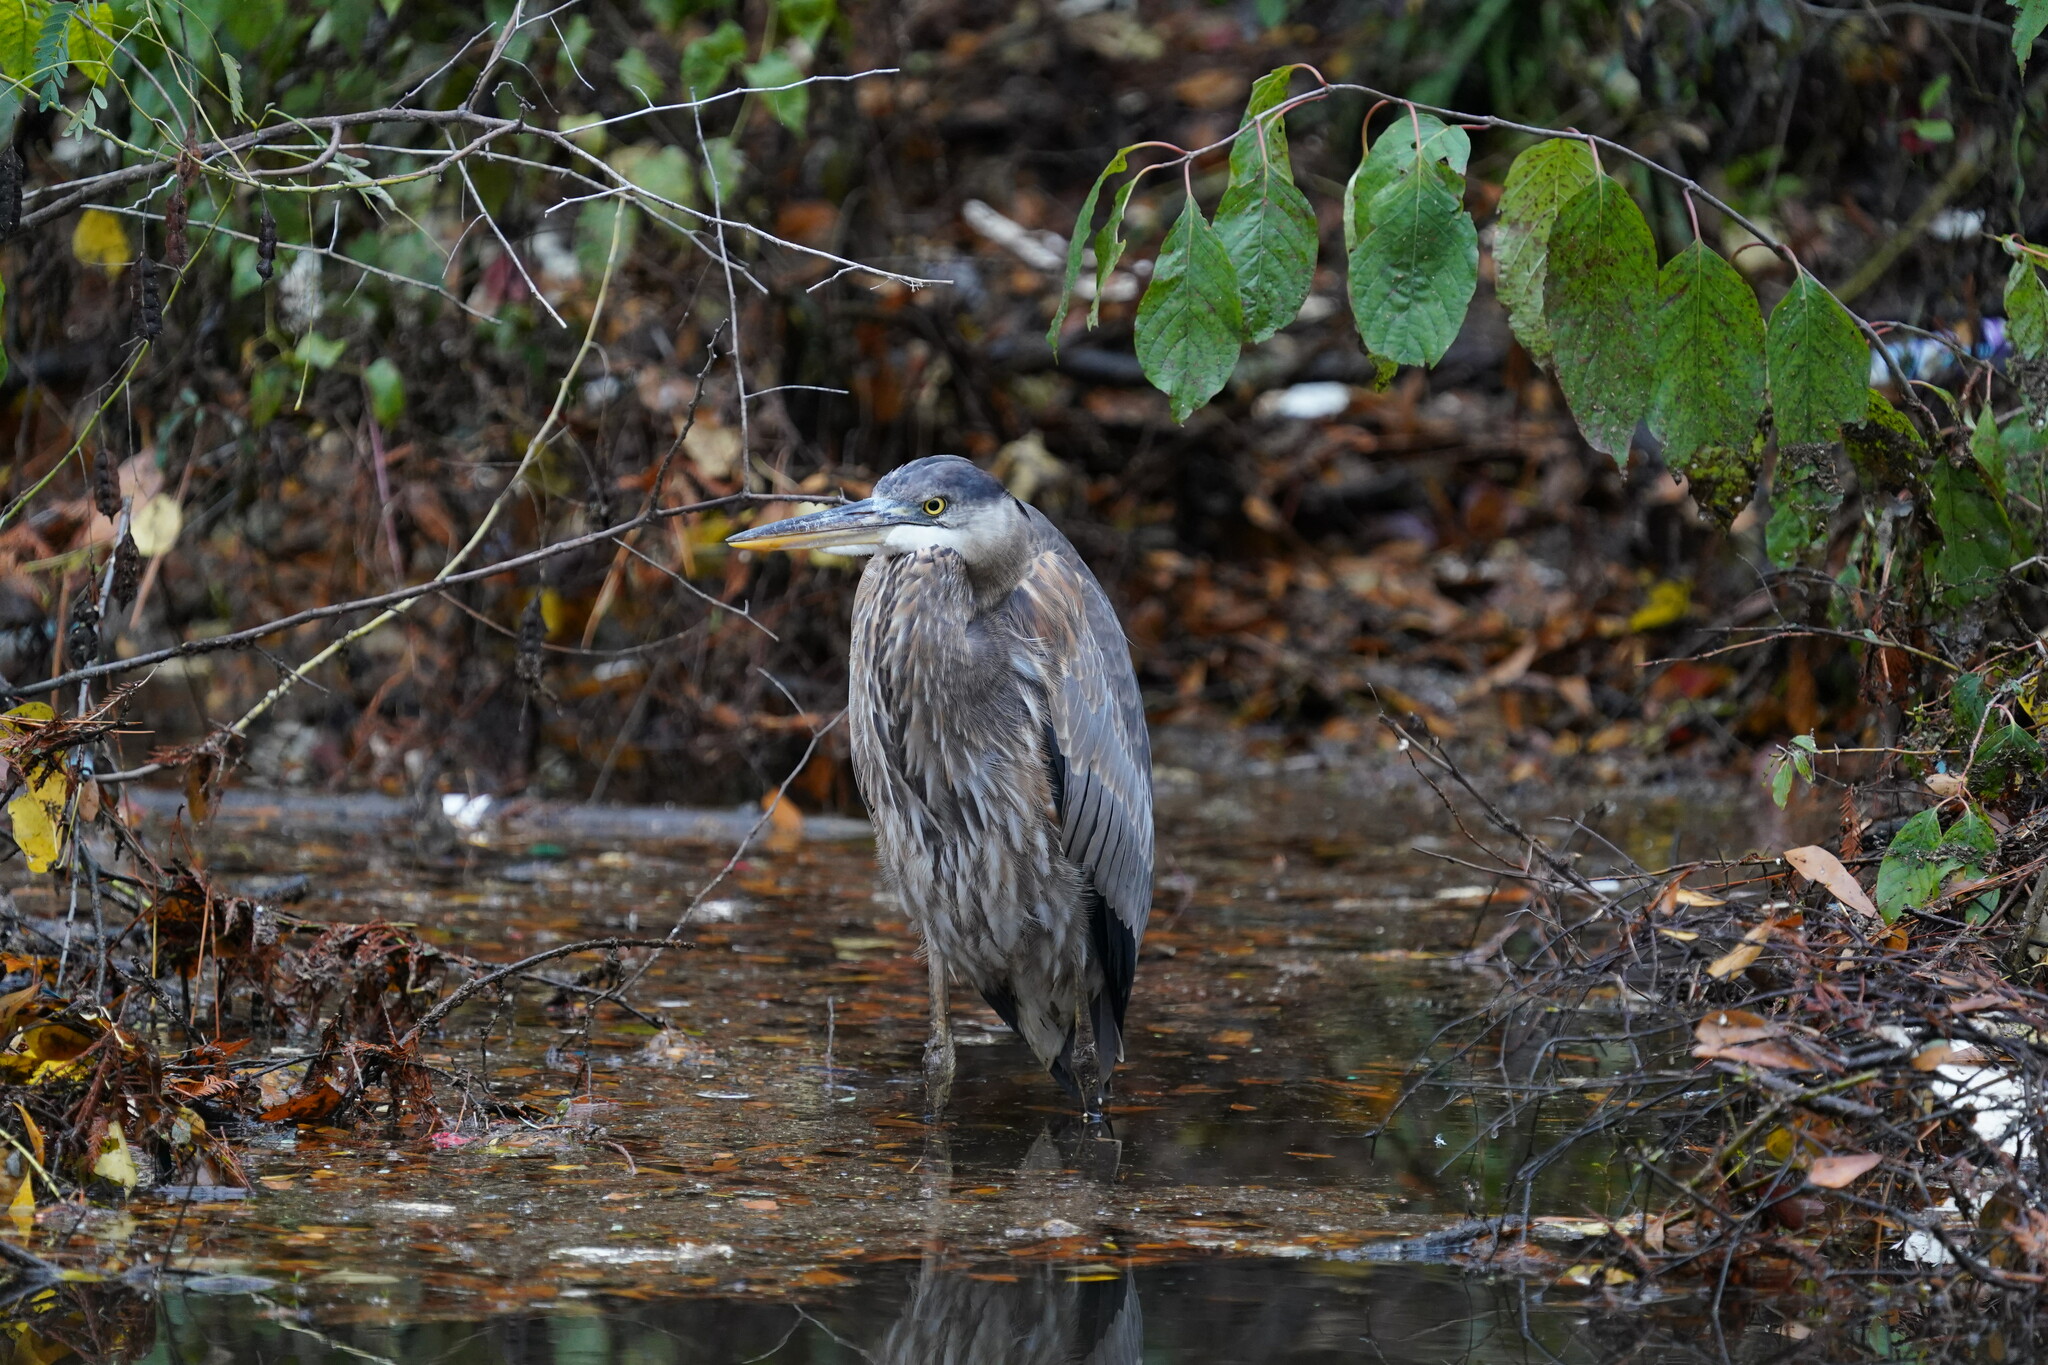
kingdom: Animalia
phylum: Chordata
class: Aves
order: Pelecaniformes
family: Ardeidae
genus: Ardea
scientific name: Ardea herodias
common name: Great blue heron
